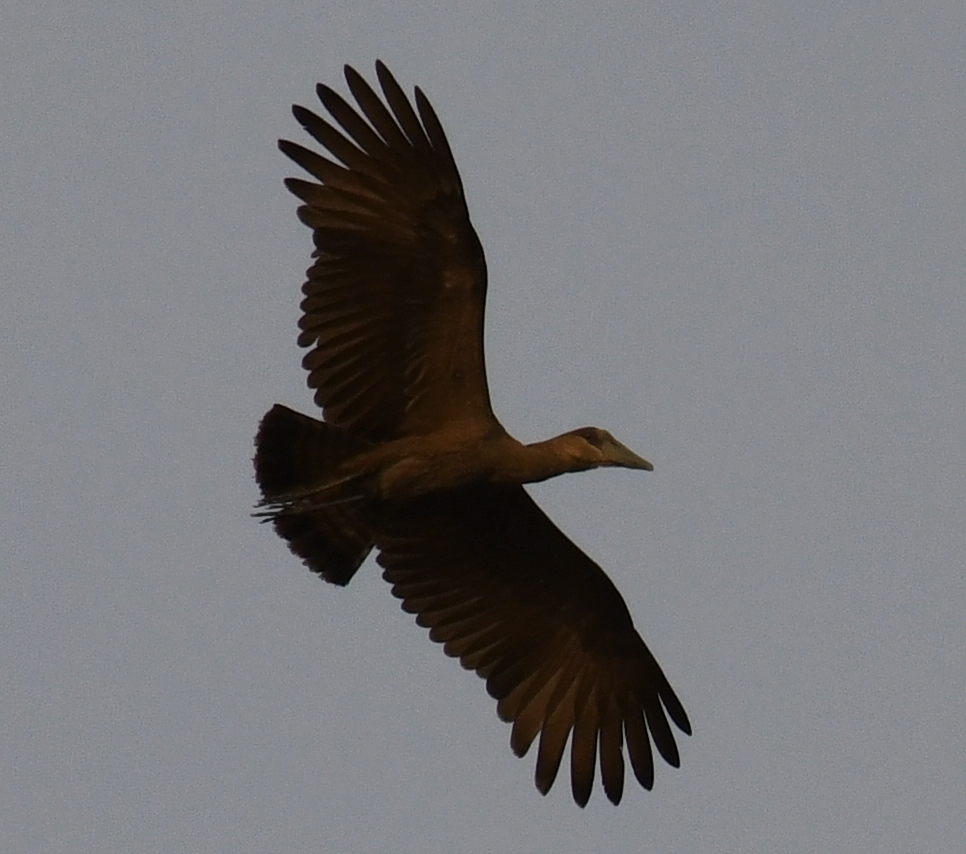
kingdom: Animalia
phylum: Chordata
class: Aves
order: Pelecaniformes
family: Scopidae
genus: Scopus
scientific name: Scopus umbretta
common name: Hamerkop
